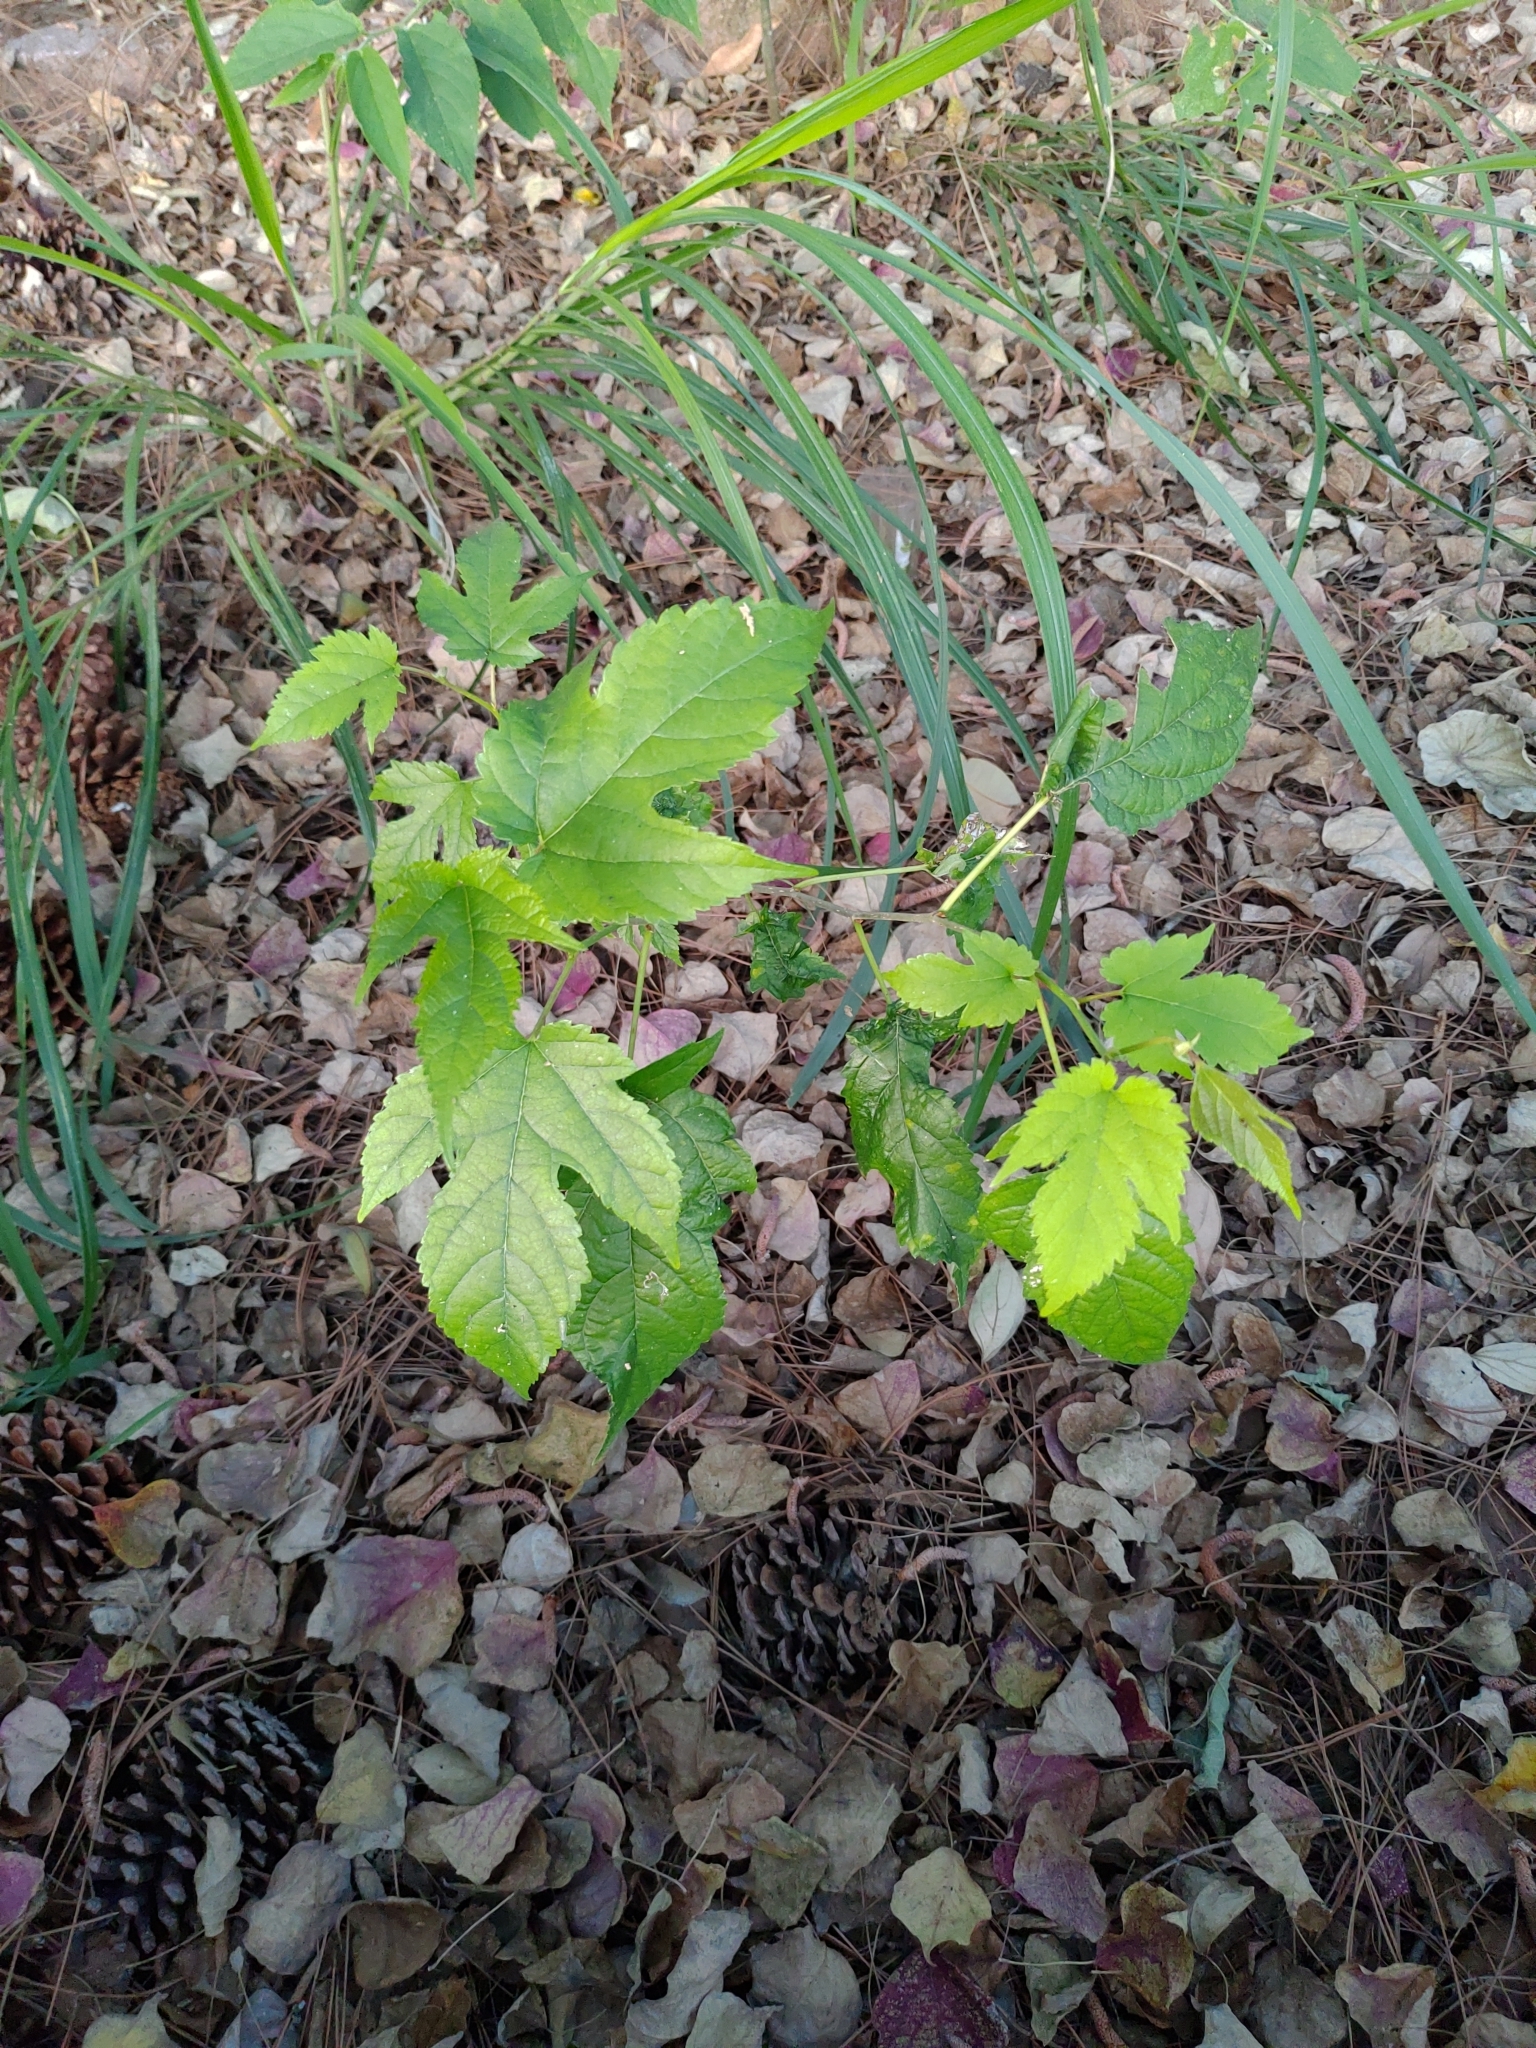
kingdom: Plantae
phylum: Tracheophyta
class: Magnoliopsida
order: Rosales
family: Moraceae
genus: Morus
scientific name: Morus indica
